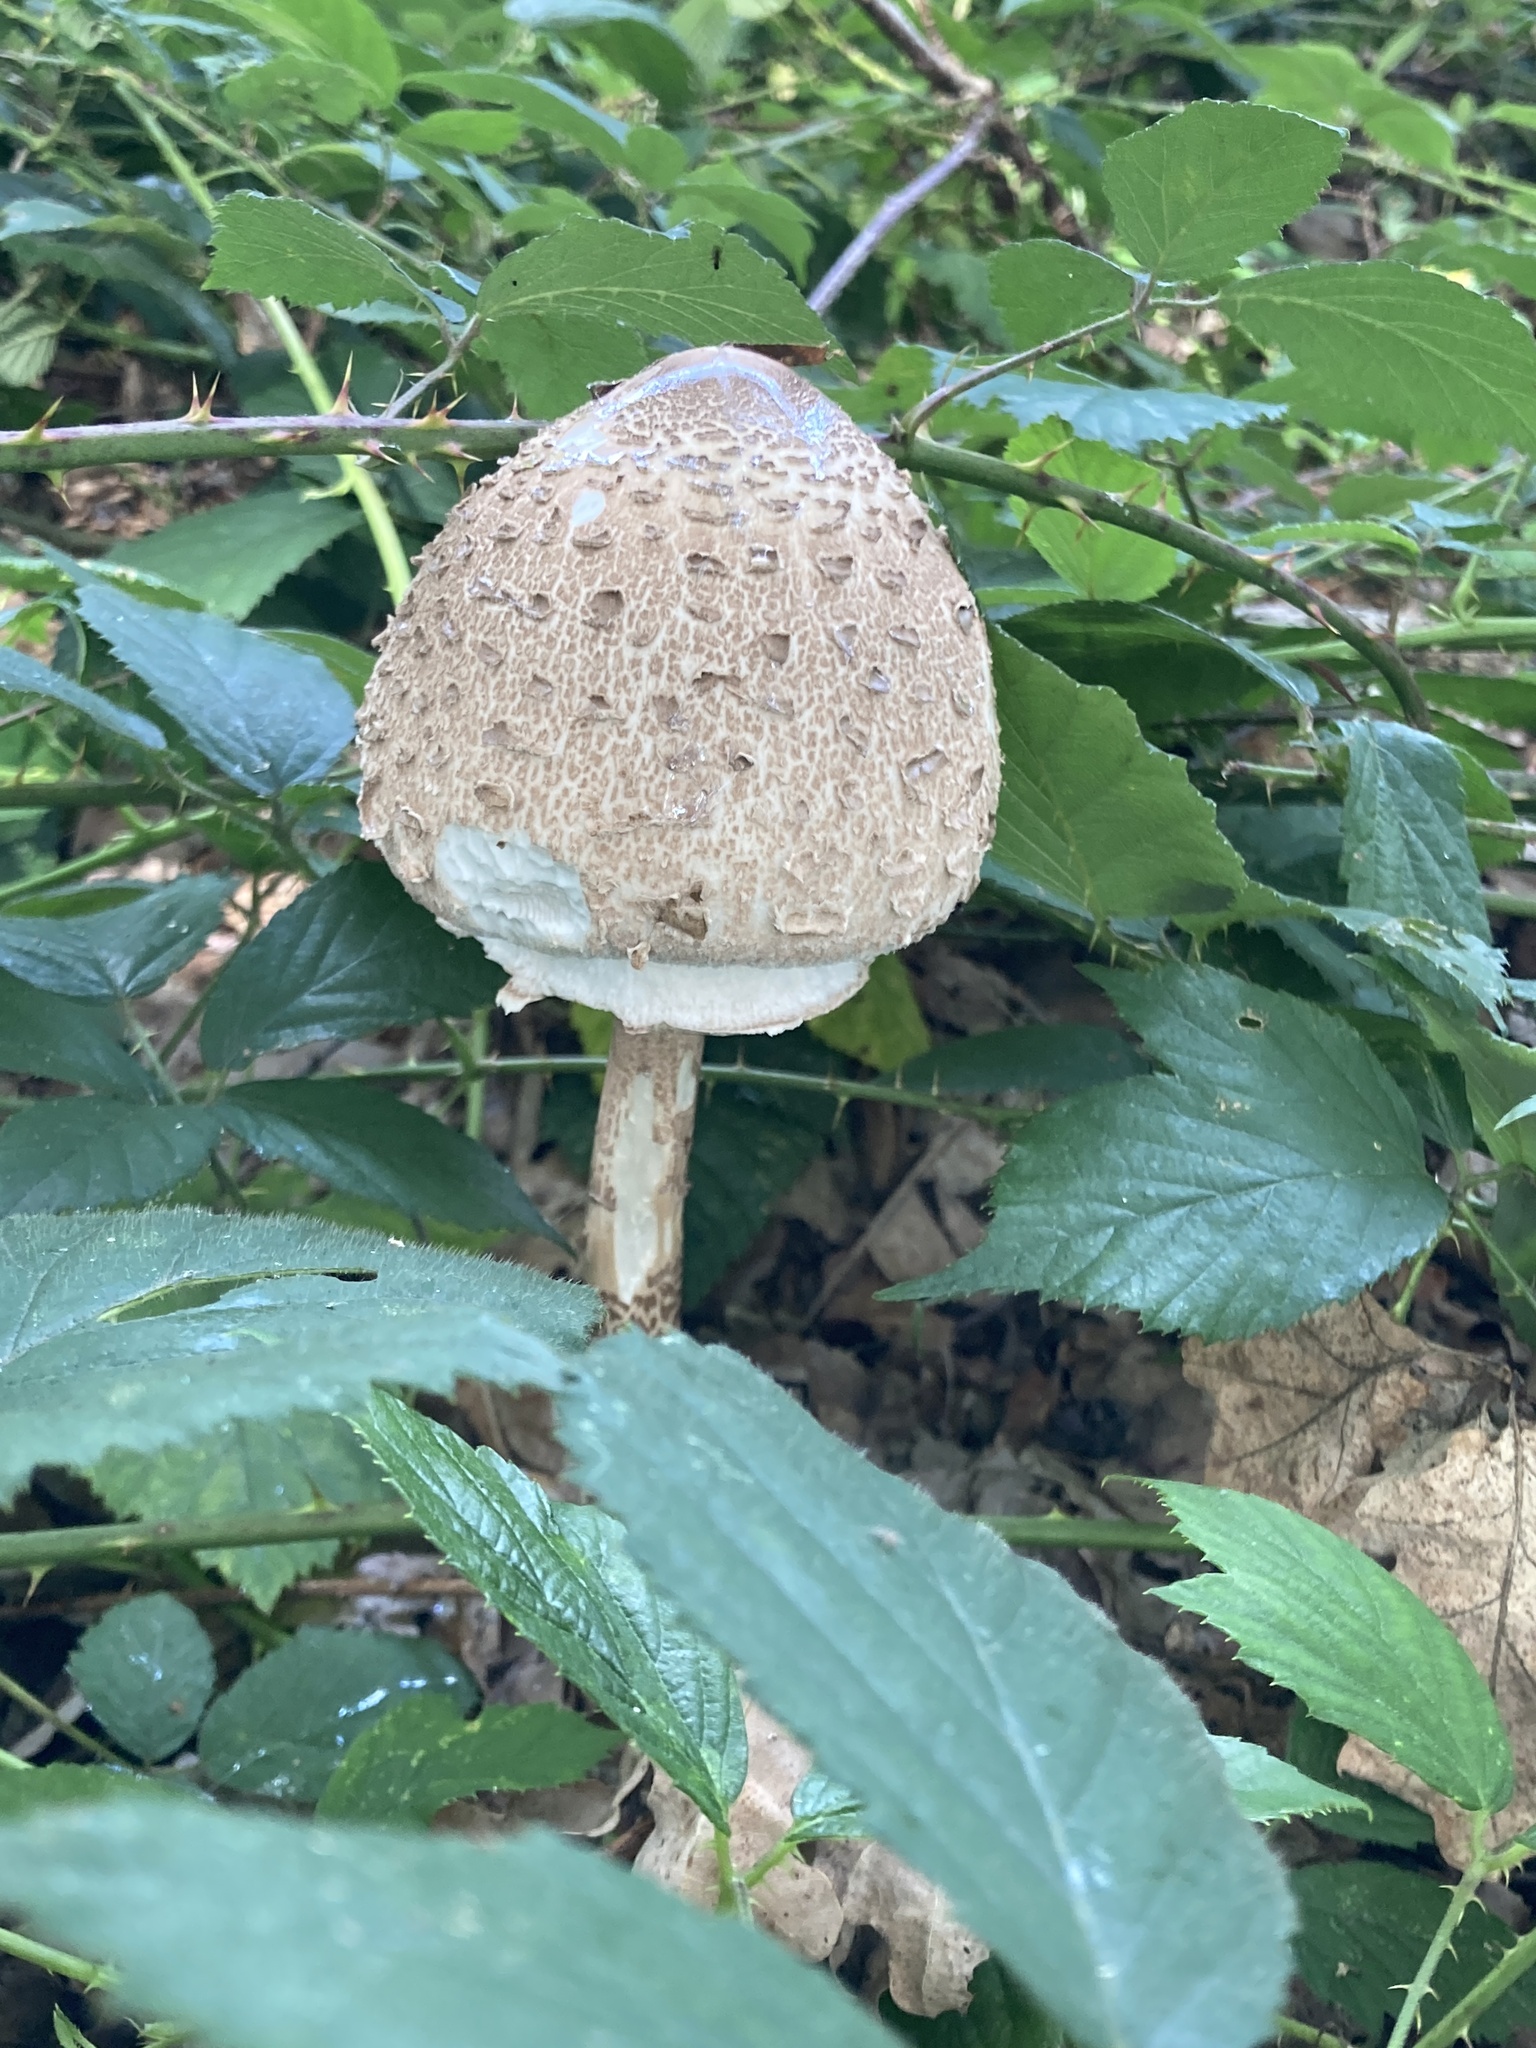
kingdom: Fungi
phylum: Basidiomycota
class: Agaricomycetes
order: Agaricales
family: Agaricaceae
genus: Macrolepiota
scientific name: Macrolepiota procera
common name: Parasol
